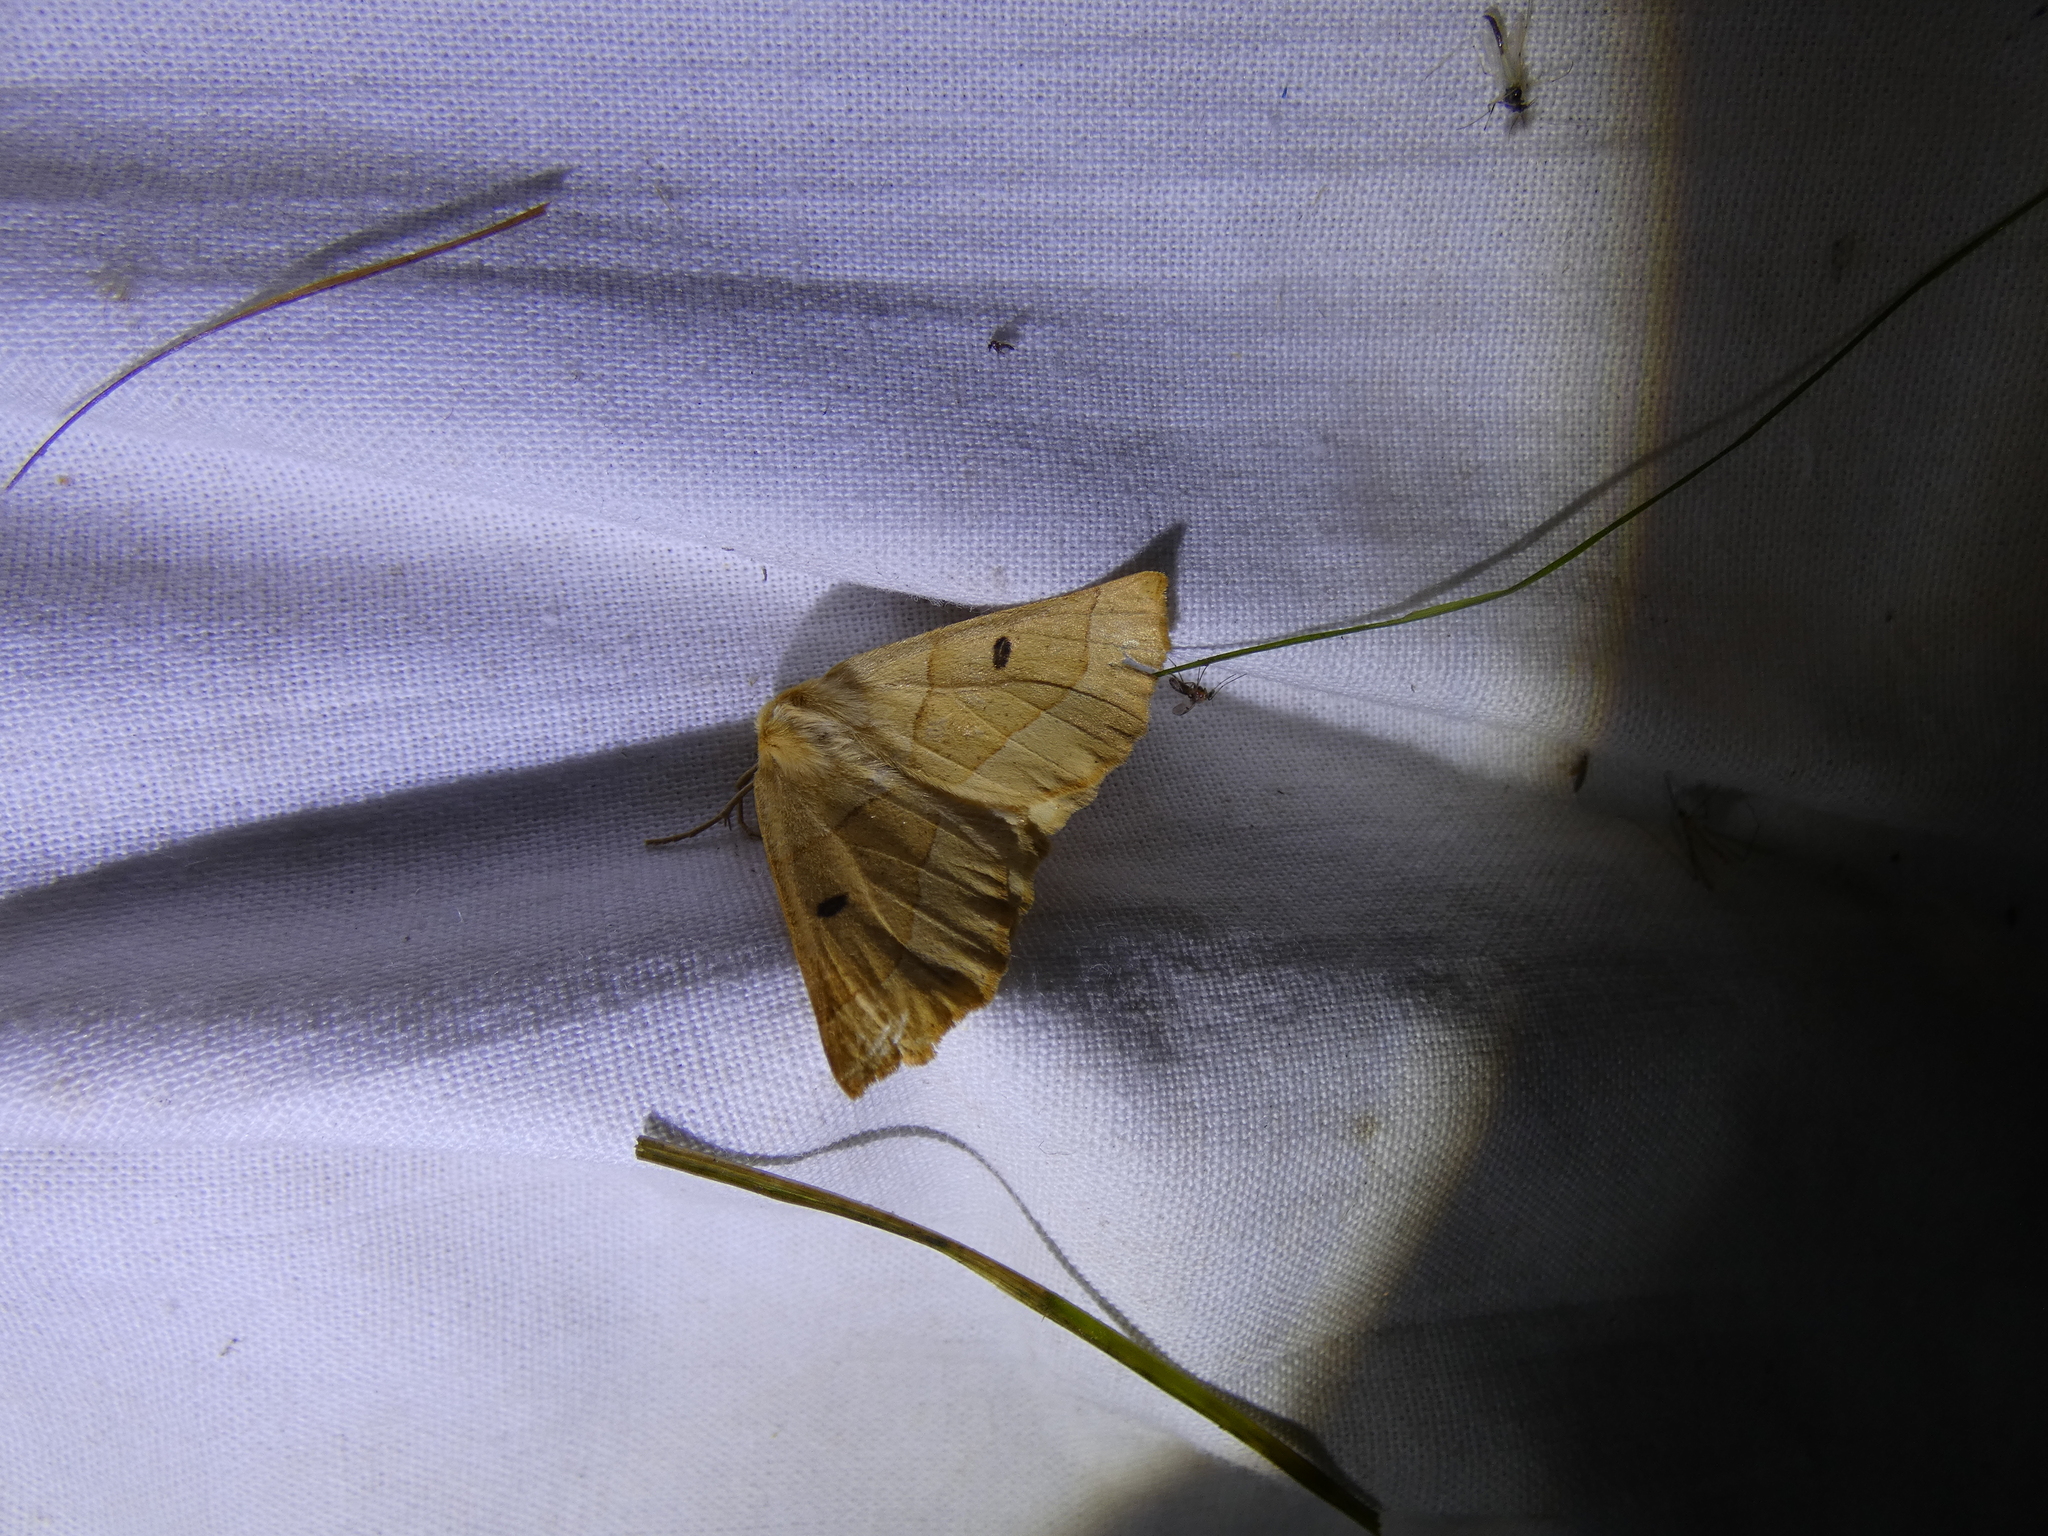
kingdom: Animalia
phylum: Arthropoda
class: Insecta
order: Lepidoptera
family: Geometridae
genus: Crocallis
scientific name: Crocallis elinguaria
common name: Scalloped oak
